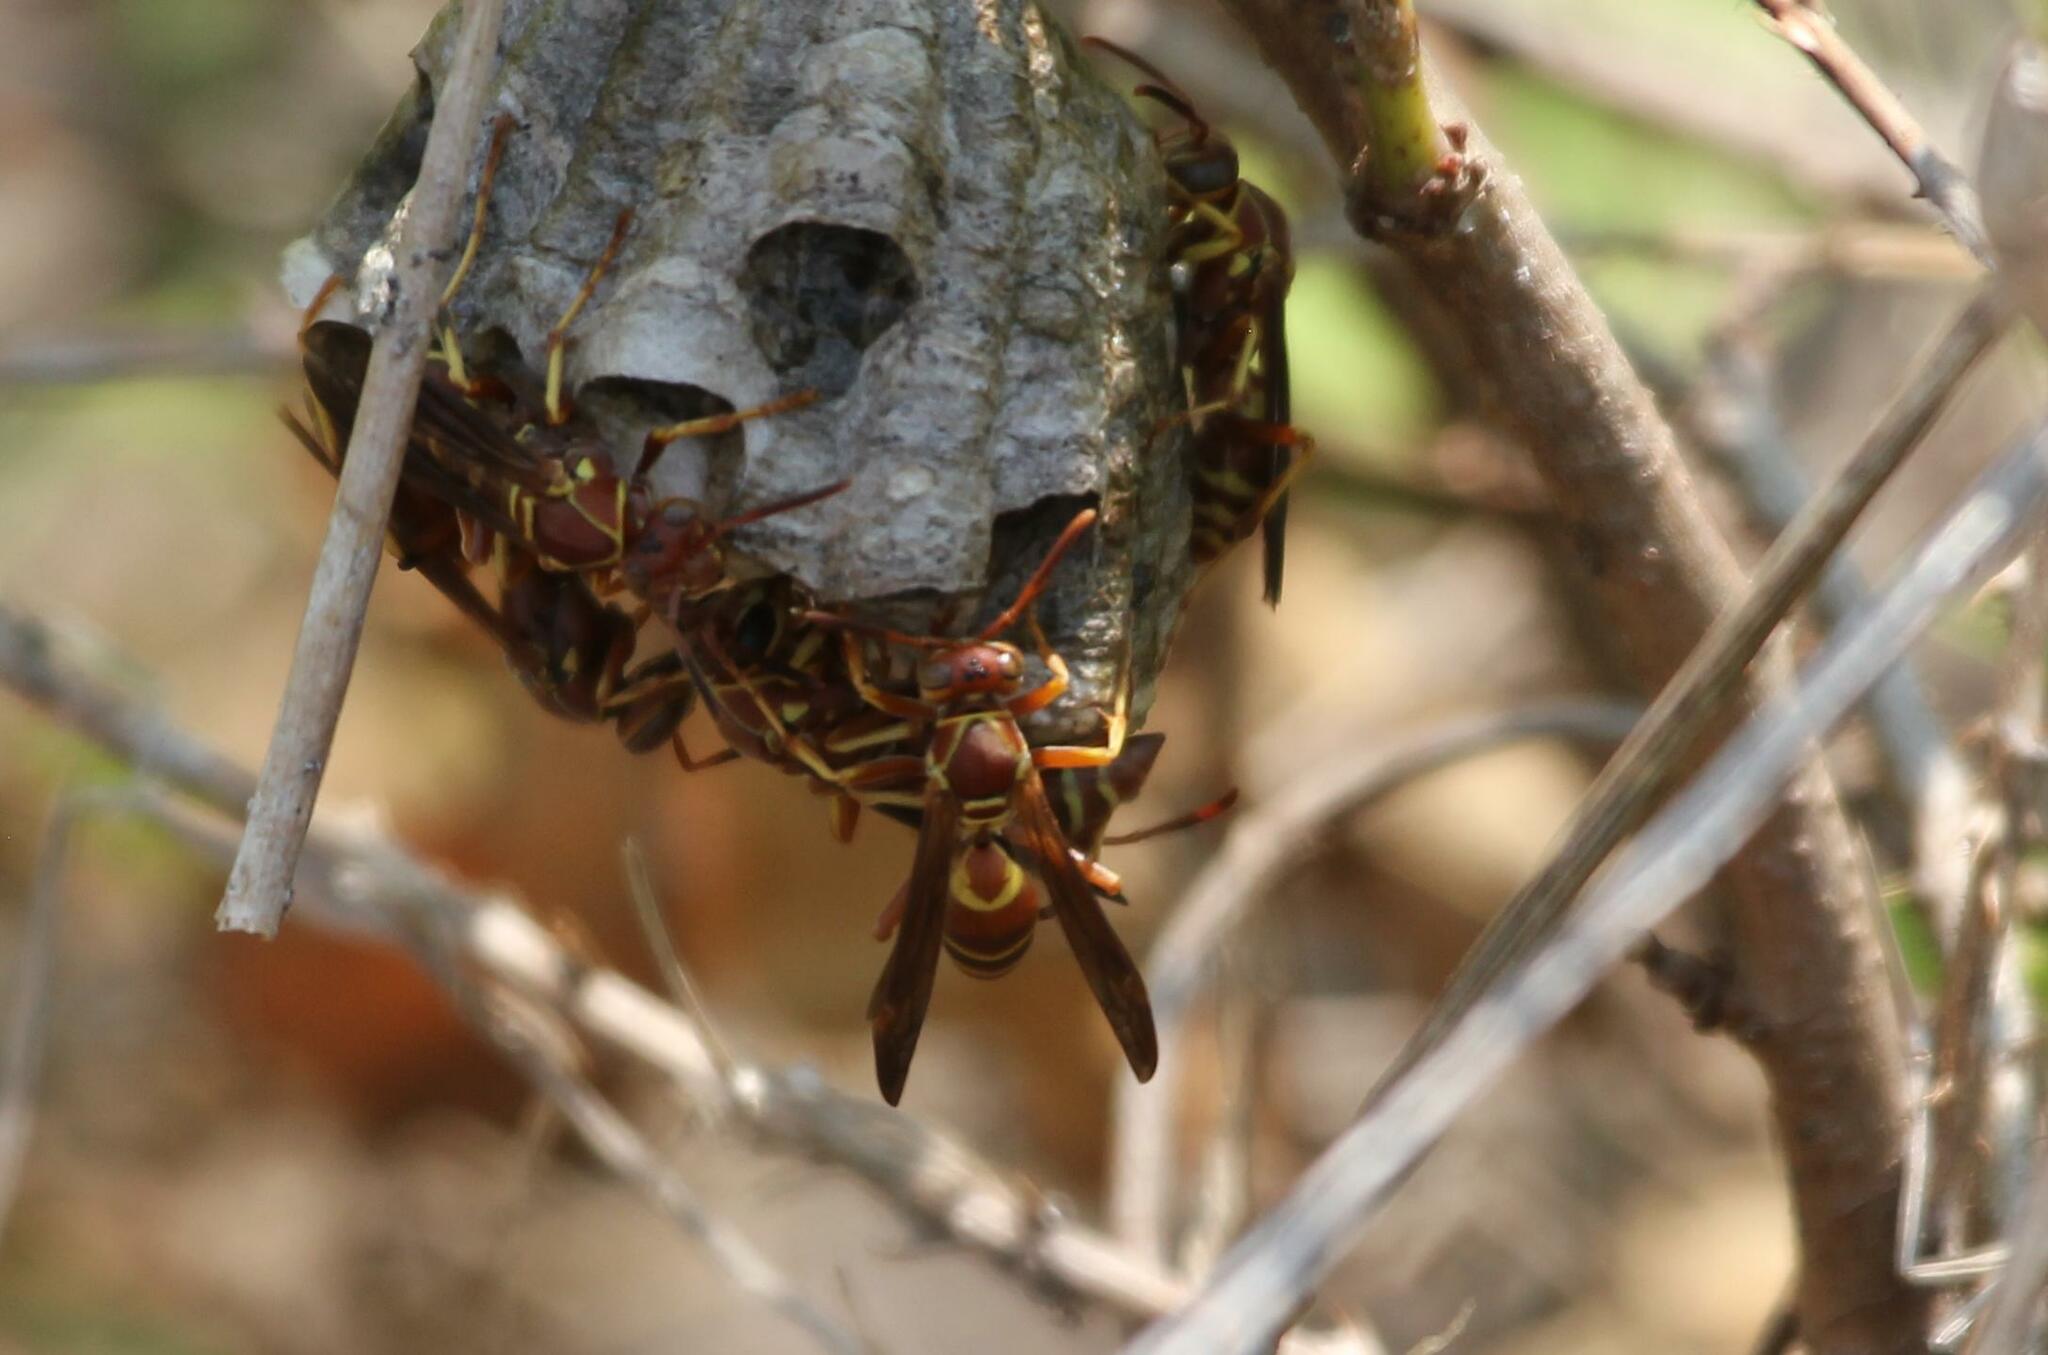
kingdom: Animalia
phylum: Arthropoda
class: Insecta
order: Hymenoptera
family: Eumenidae
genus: Polistes
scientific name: Polistes dorsalis
